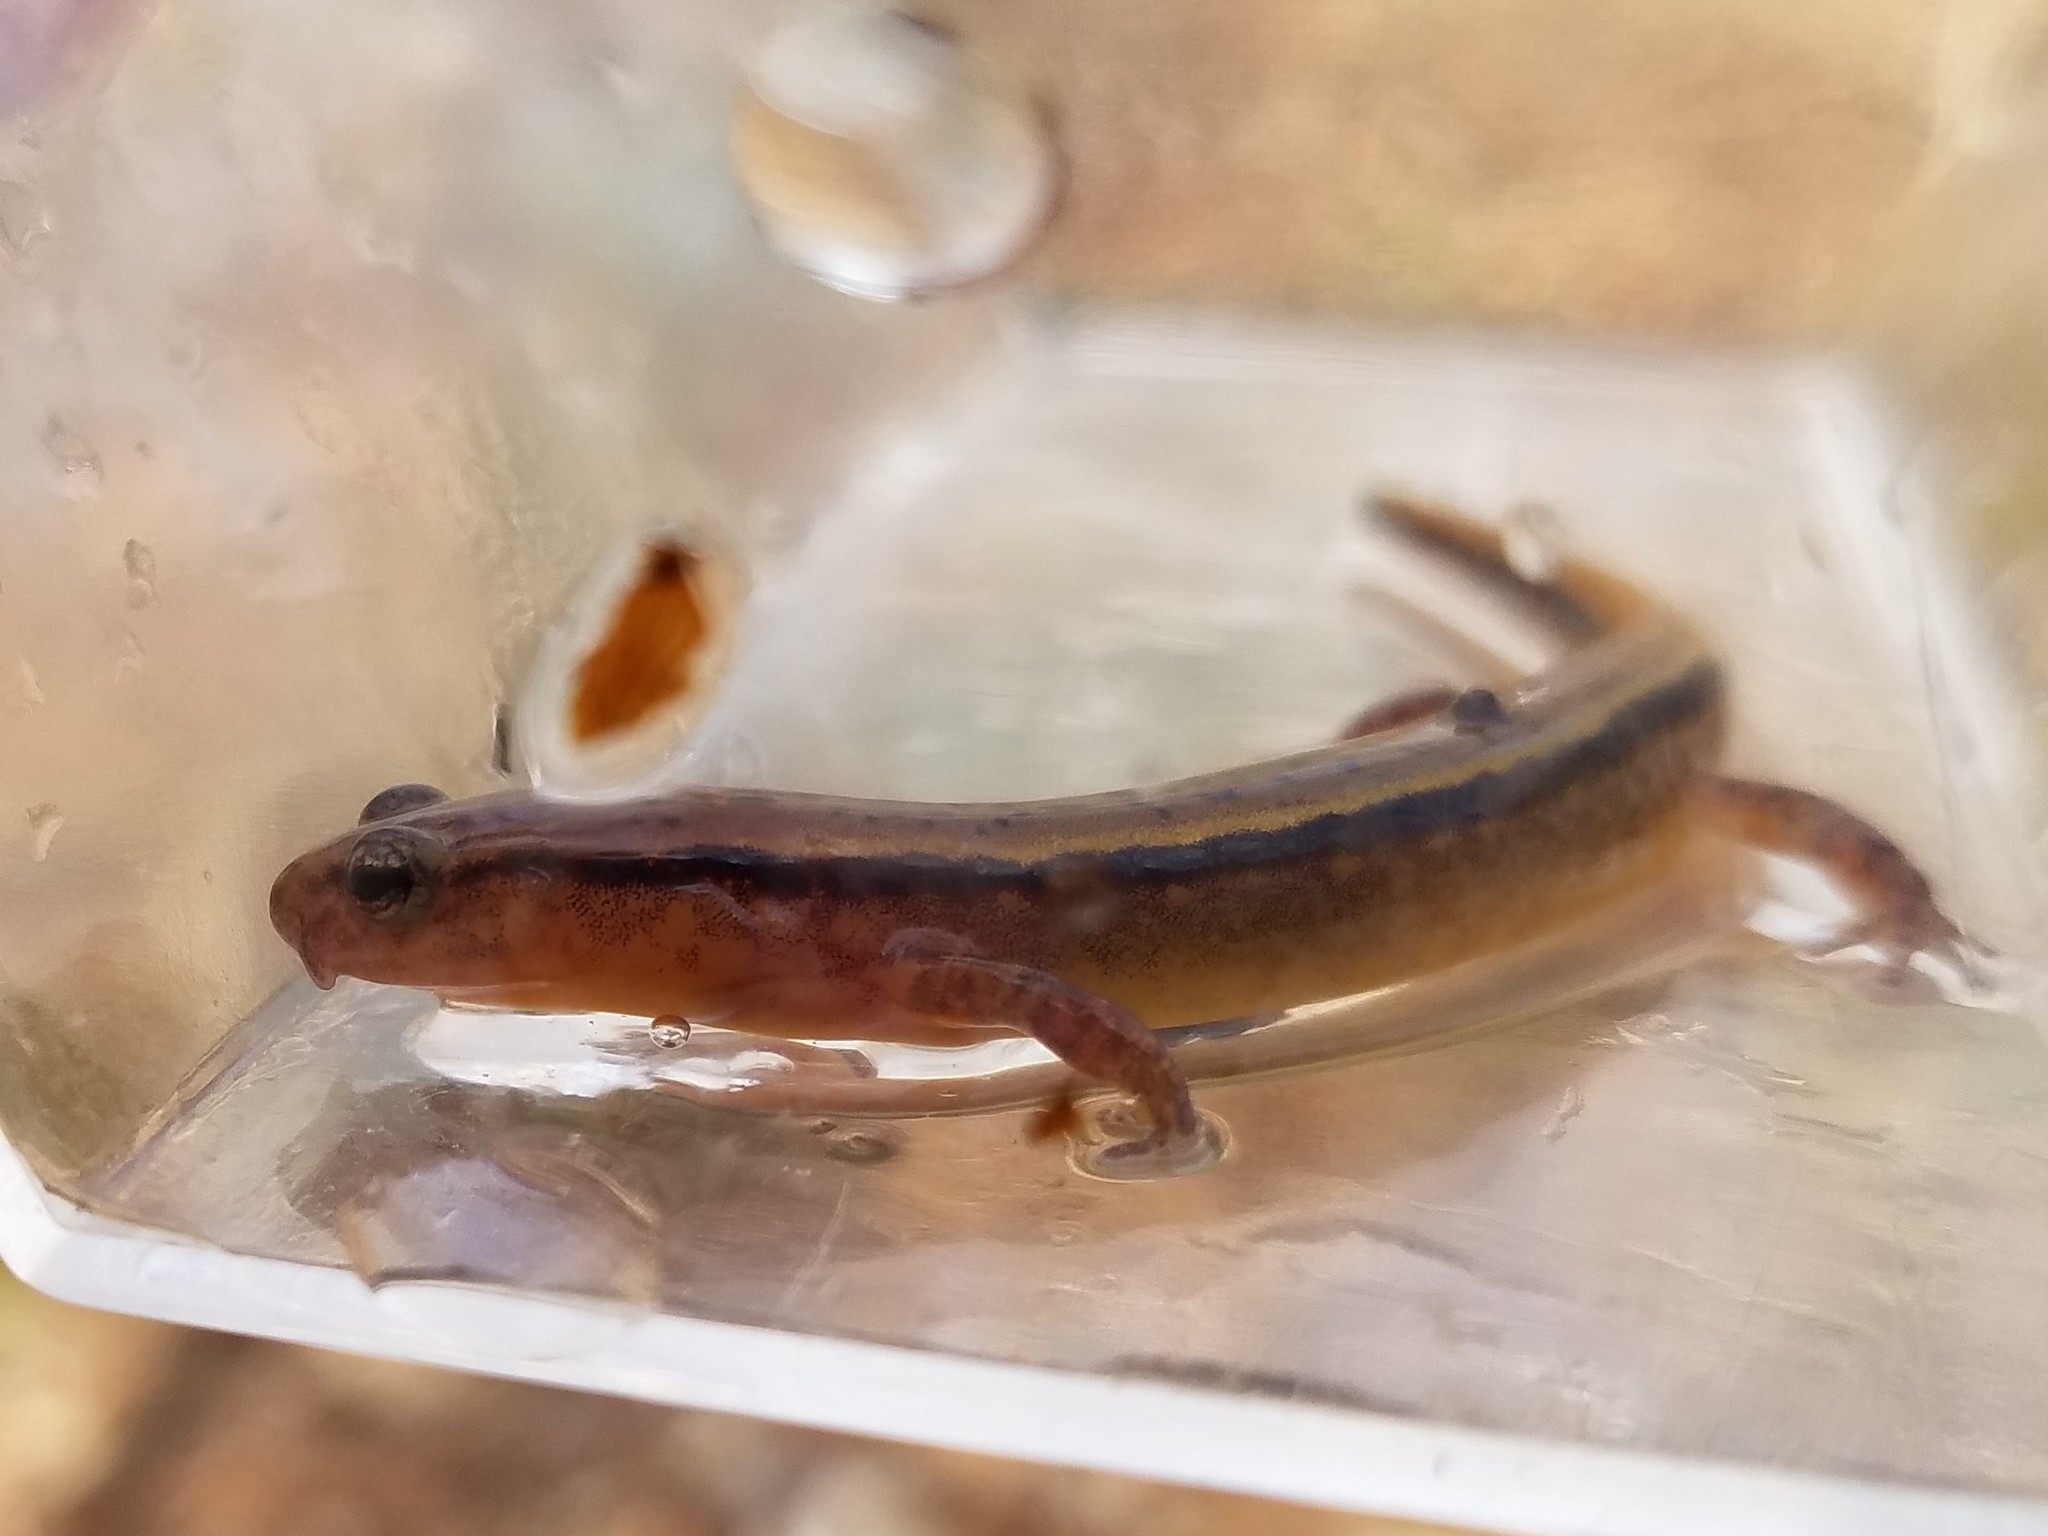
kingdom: Animalia
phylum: Chordata
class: Amphibia
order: Caudata
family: Plethodontidae
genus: Eurycea
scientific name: Eurycea cirrigera
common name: Southern two-lined salamander
